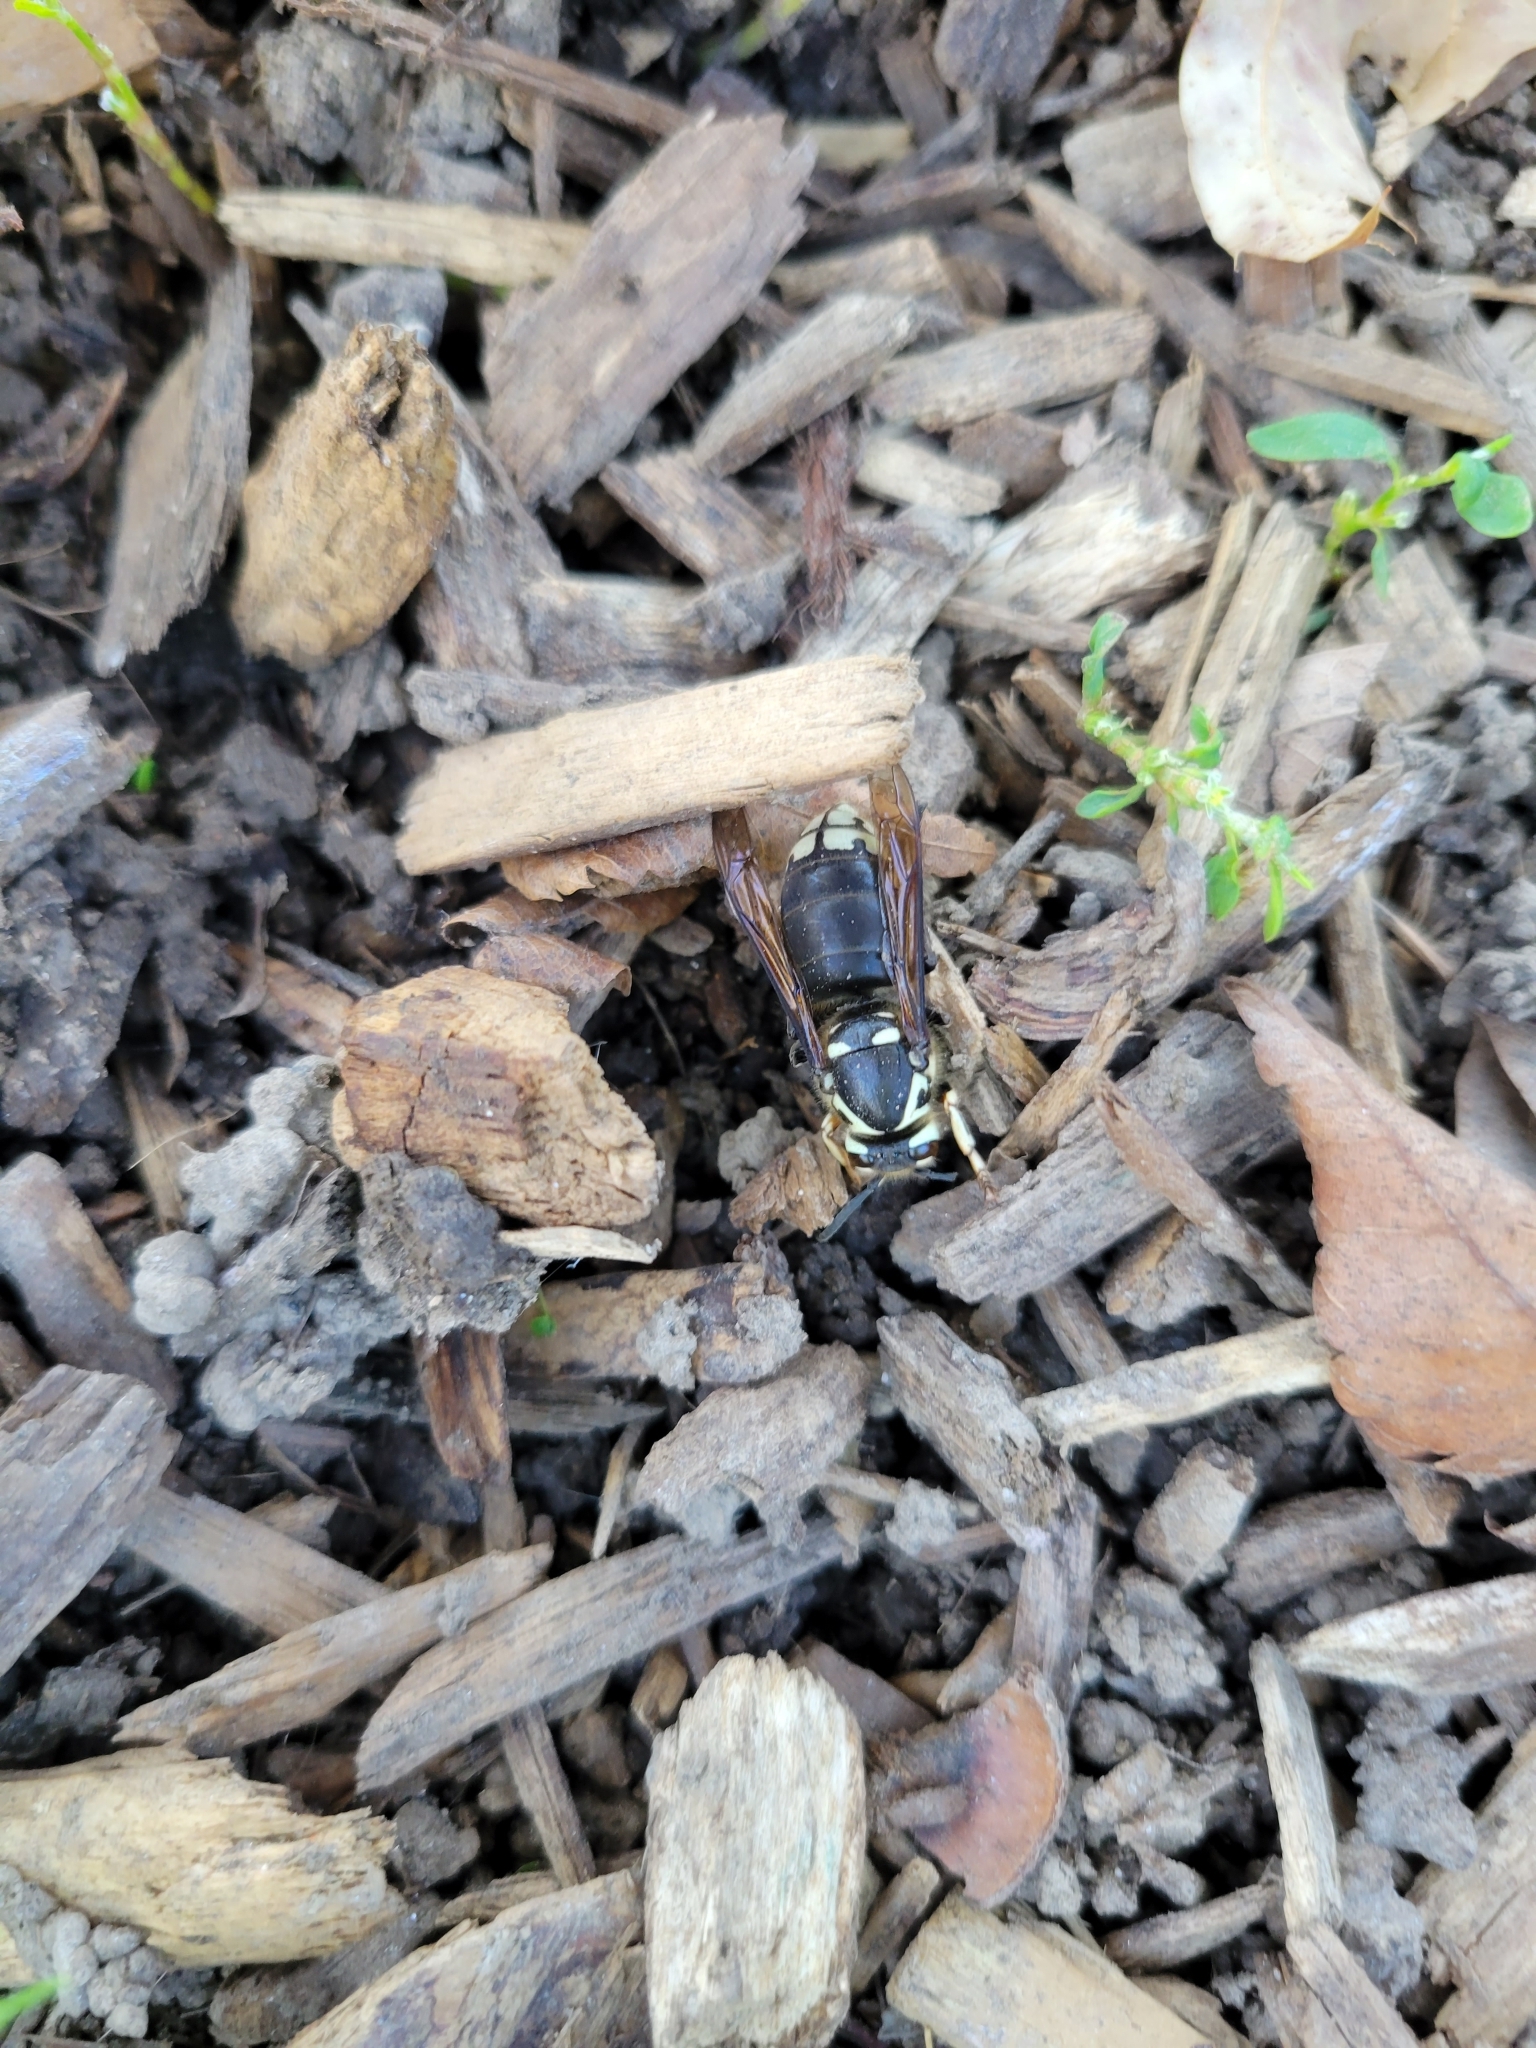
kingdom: Animalia
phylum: Arthropoda
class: Insecta
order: Hymenoptera
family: Vespidae
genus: Dolichovespula
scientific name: Dolichovespula maculata
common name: Bald-faced hornet
